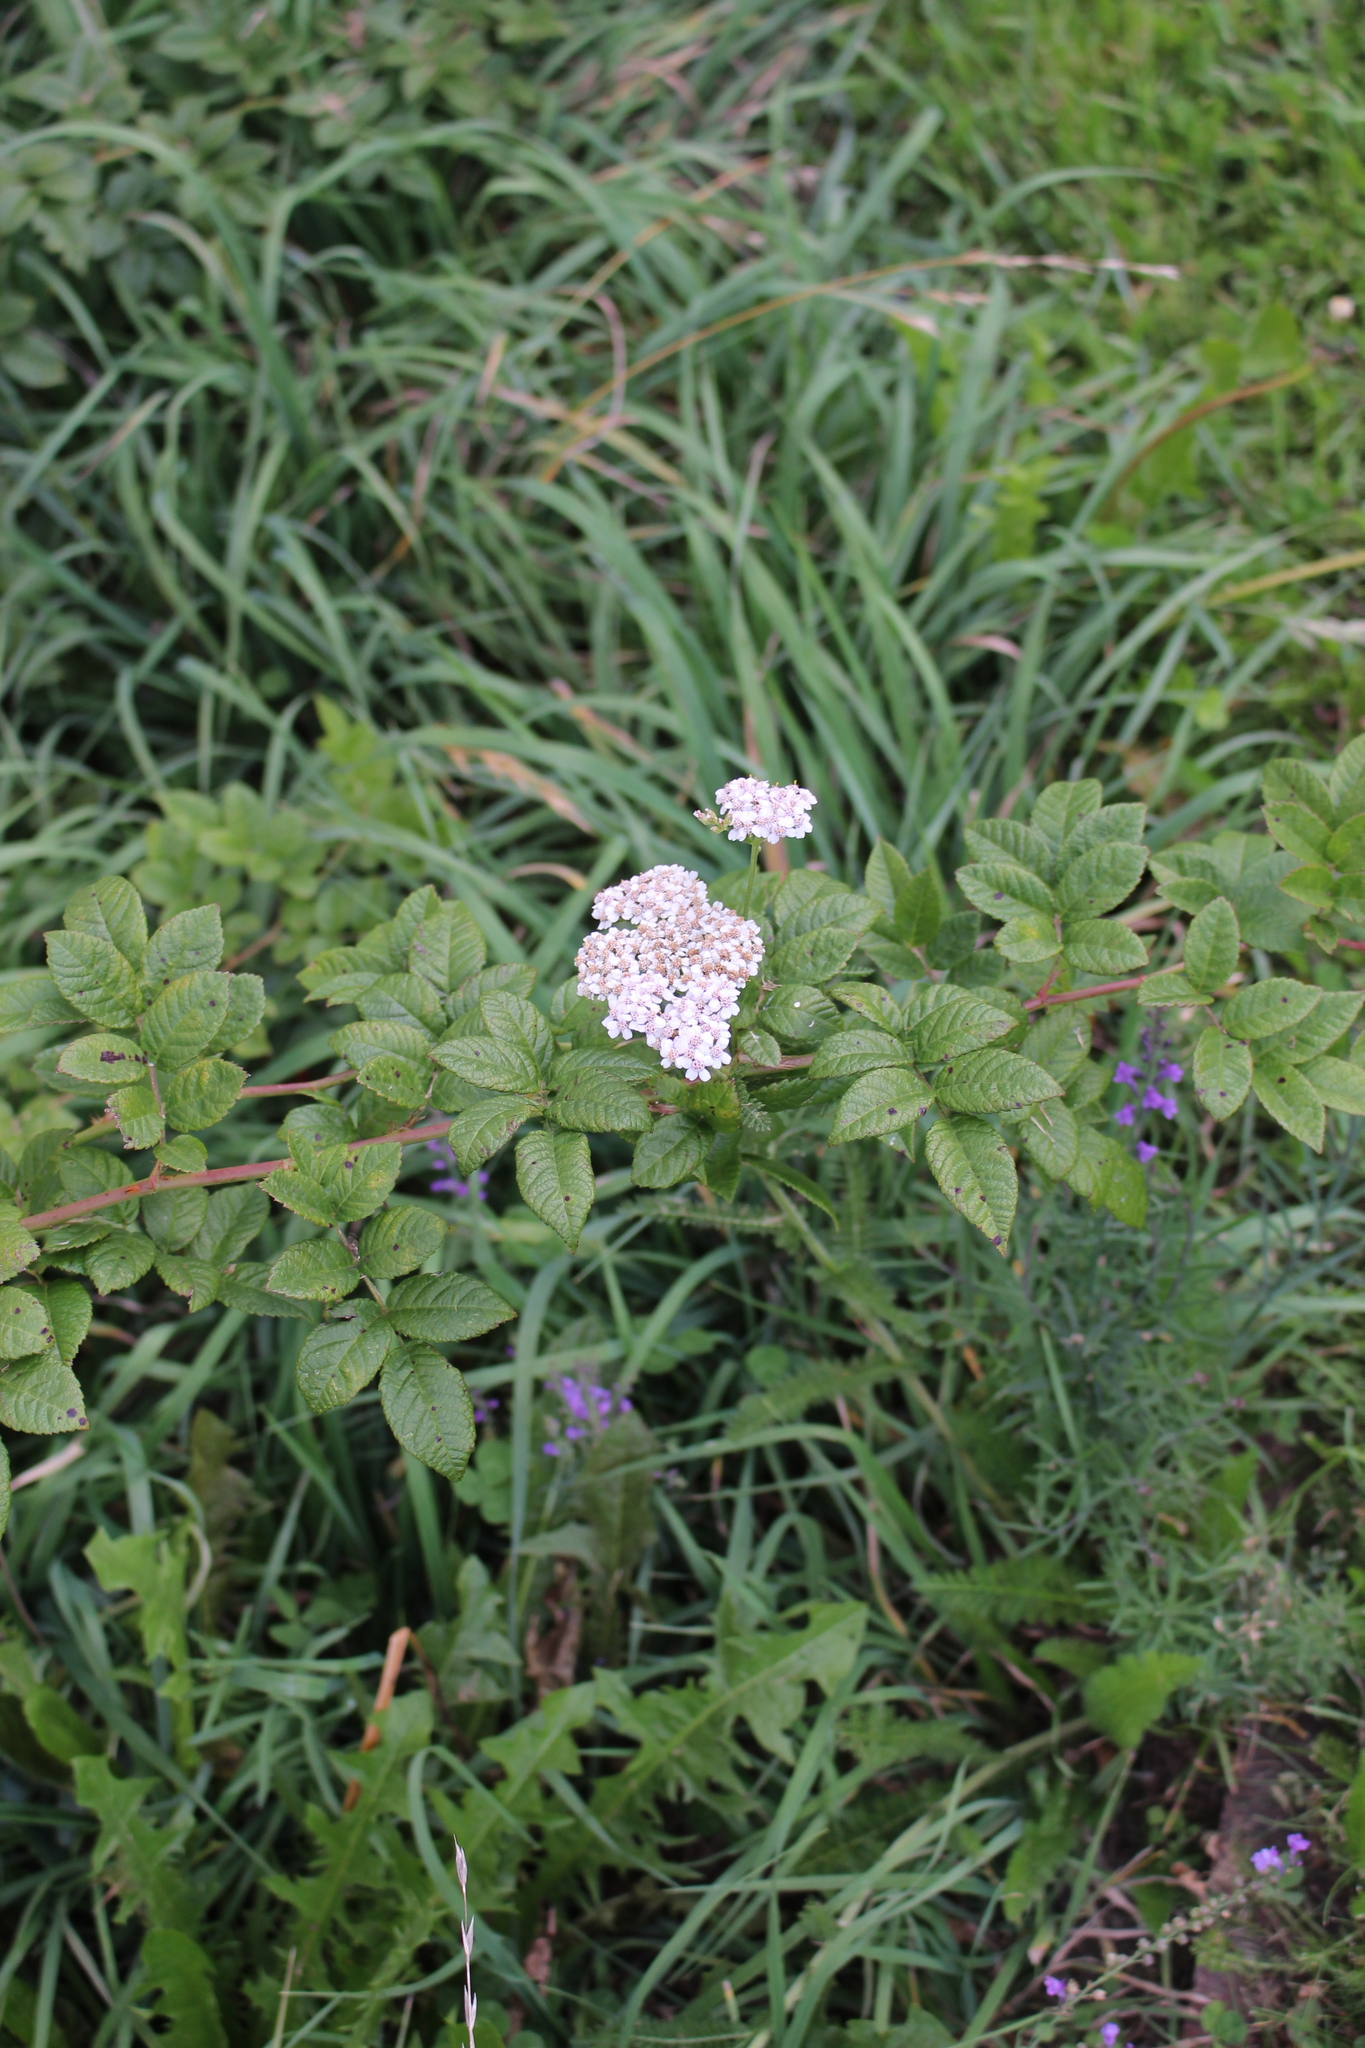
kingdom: Plantae
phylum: Tracheophyta
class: Magnoliopsida
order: Asterales
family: Asteraceae
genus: Achillea
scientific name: Achillea millefolium
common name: Yarrow
